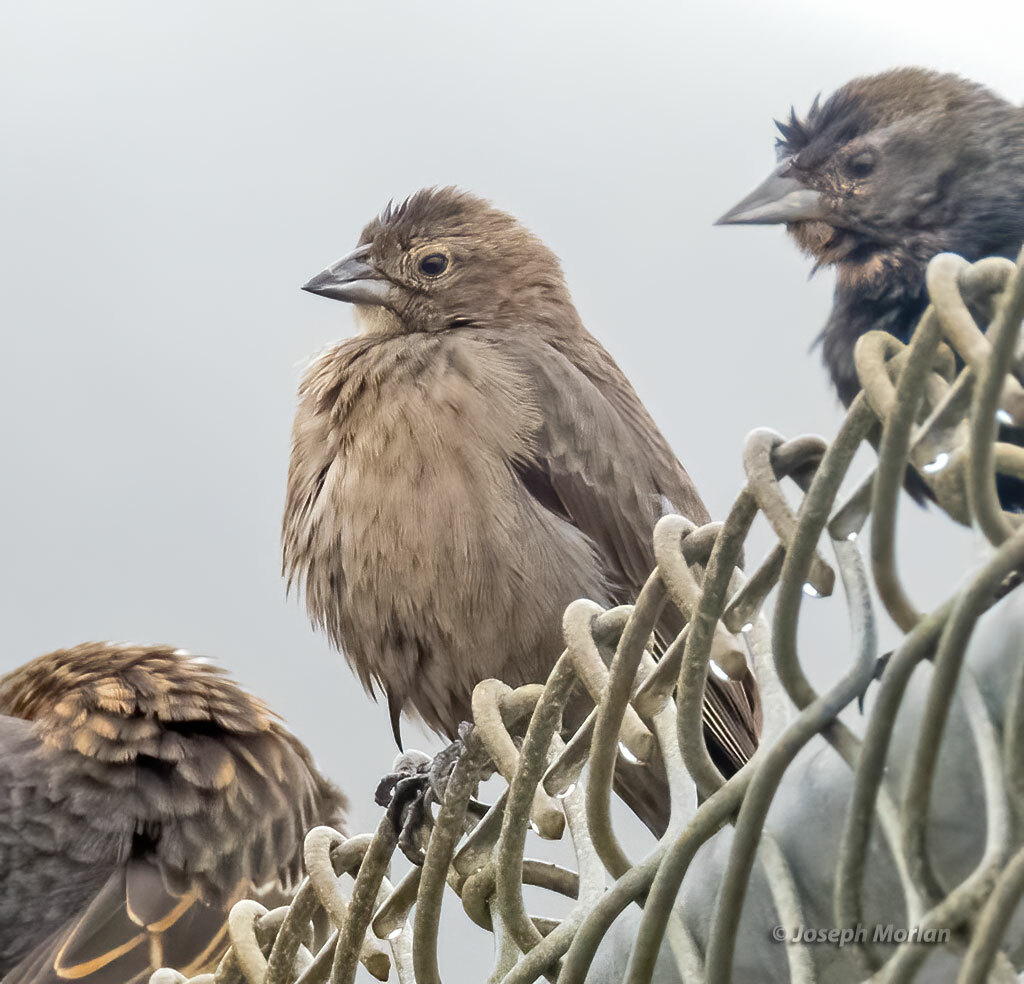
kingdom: Animalia
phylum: Chordata
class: Aves
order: Passeriformes
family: Icteridae
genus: Molothrus
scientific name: Molothrus ater
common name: Brown-headed cowbird
